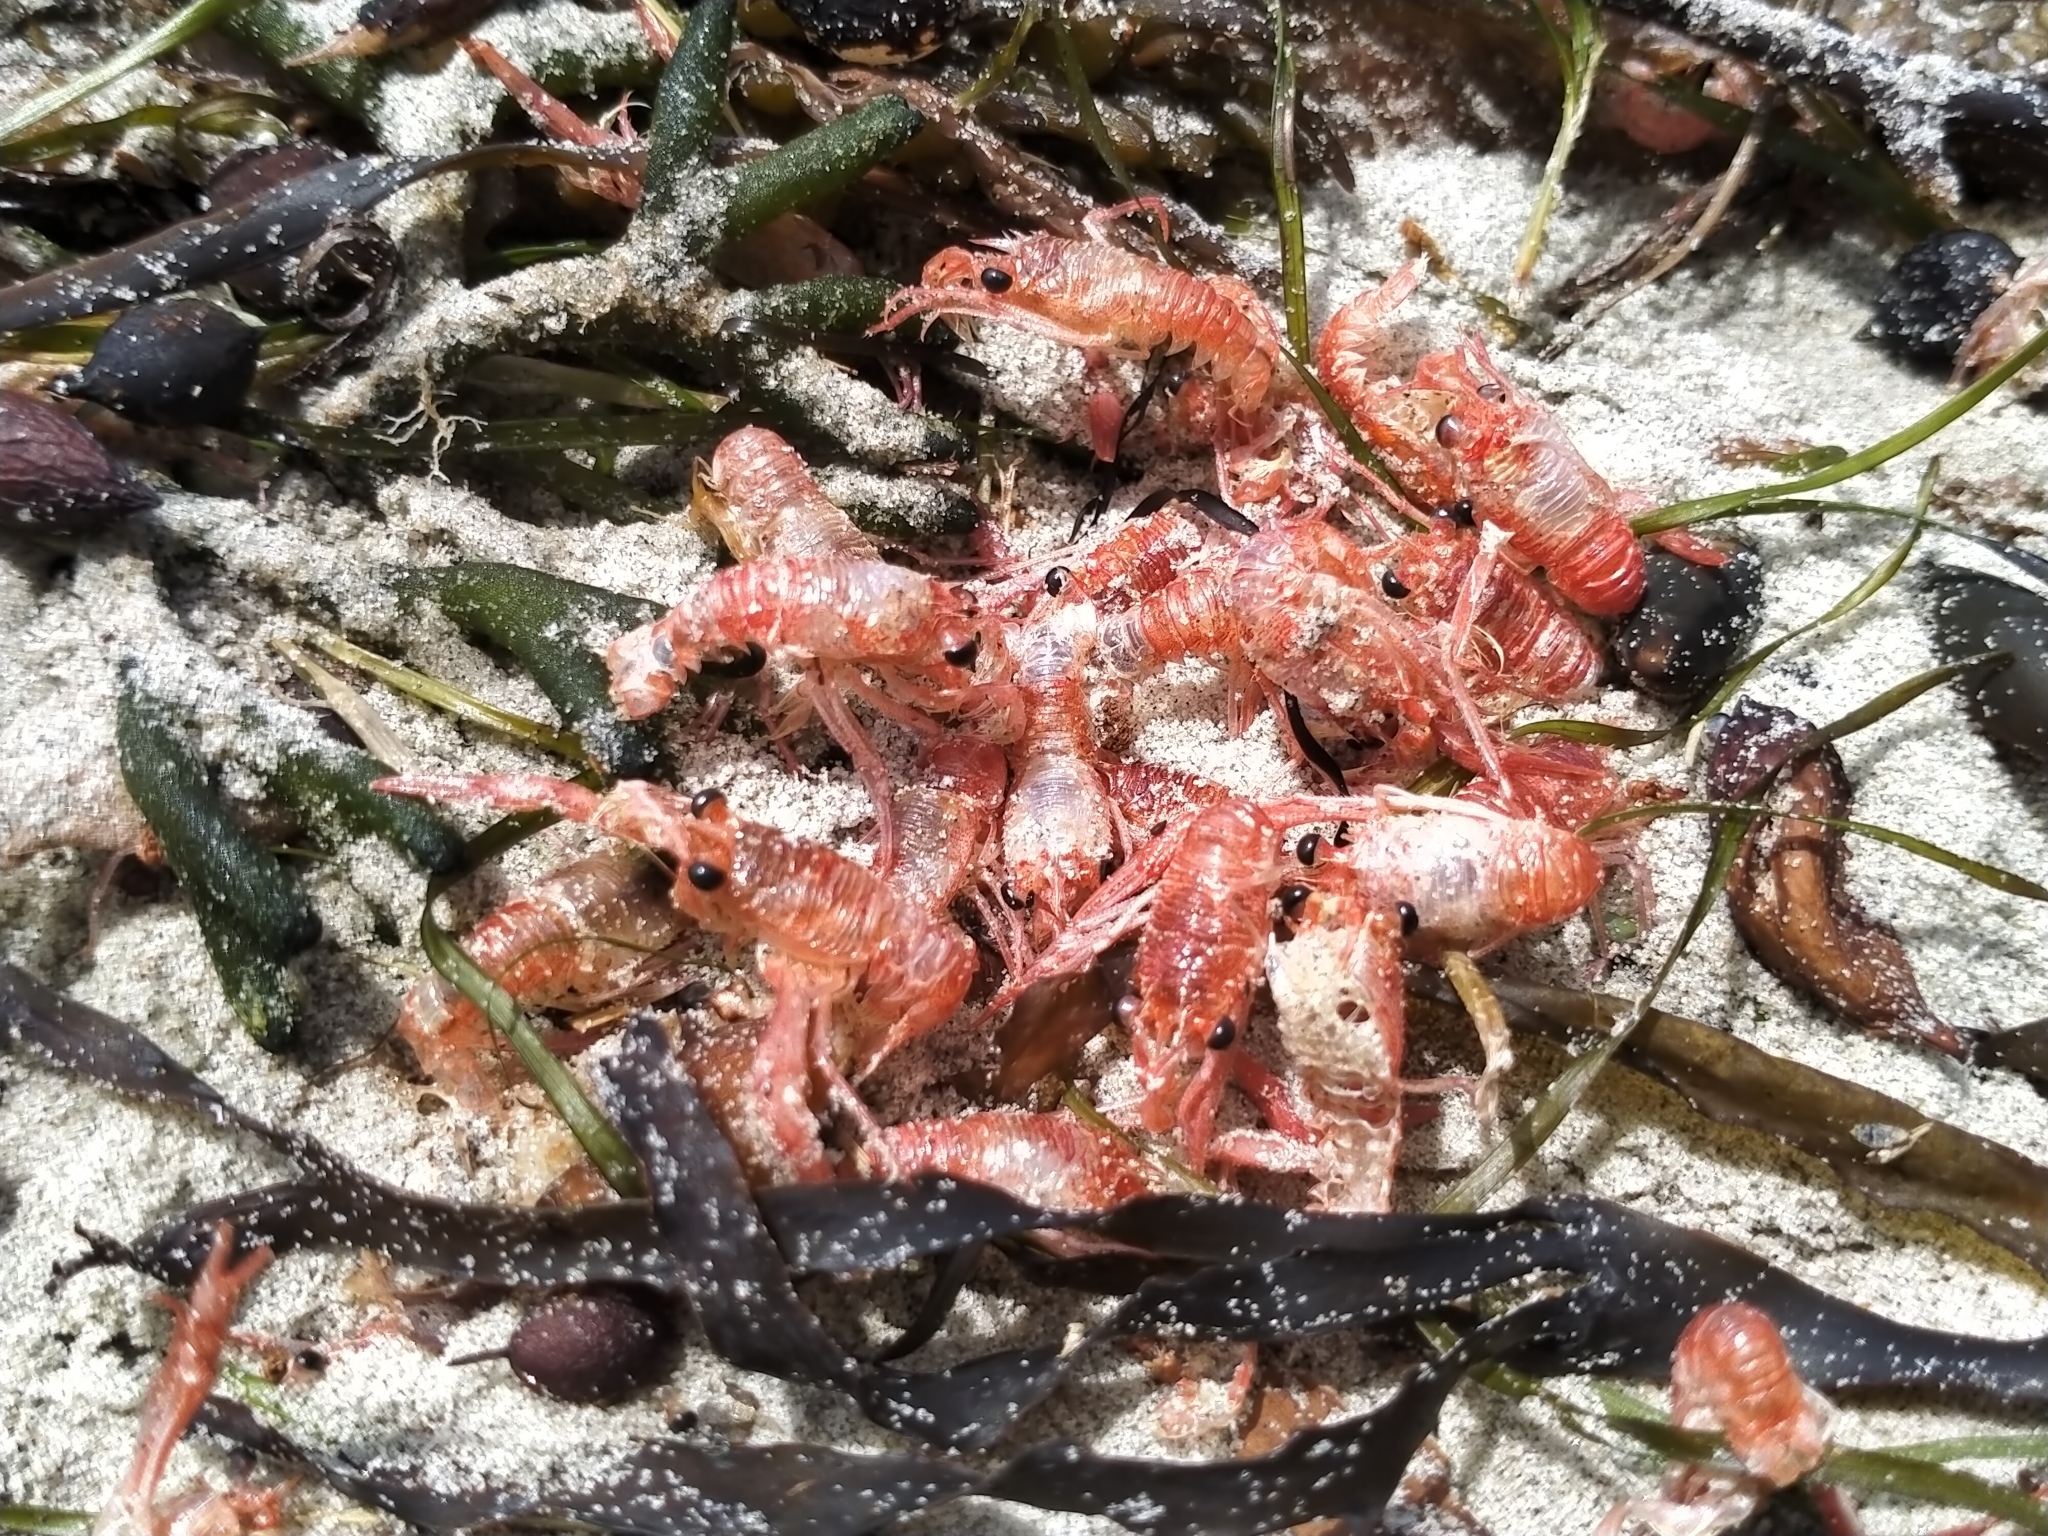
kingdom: Animalia
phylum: Arthropoda
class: Malacostraca
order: Decapoda
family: Munididae
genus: Grimothea
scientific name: Grimothea gregaria
